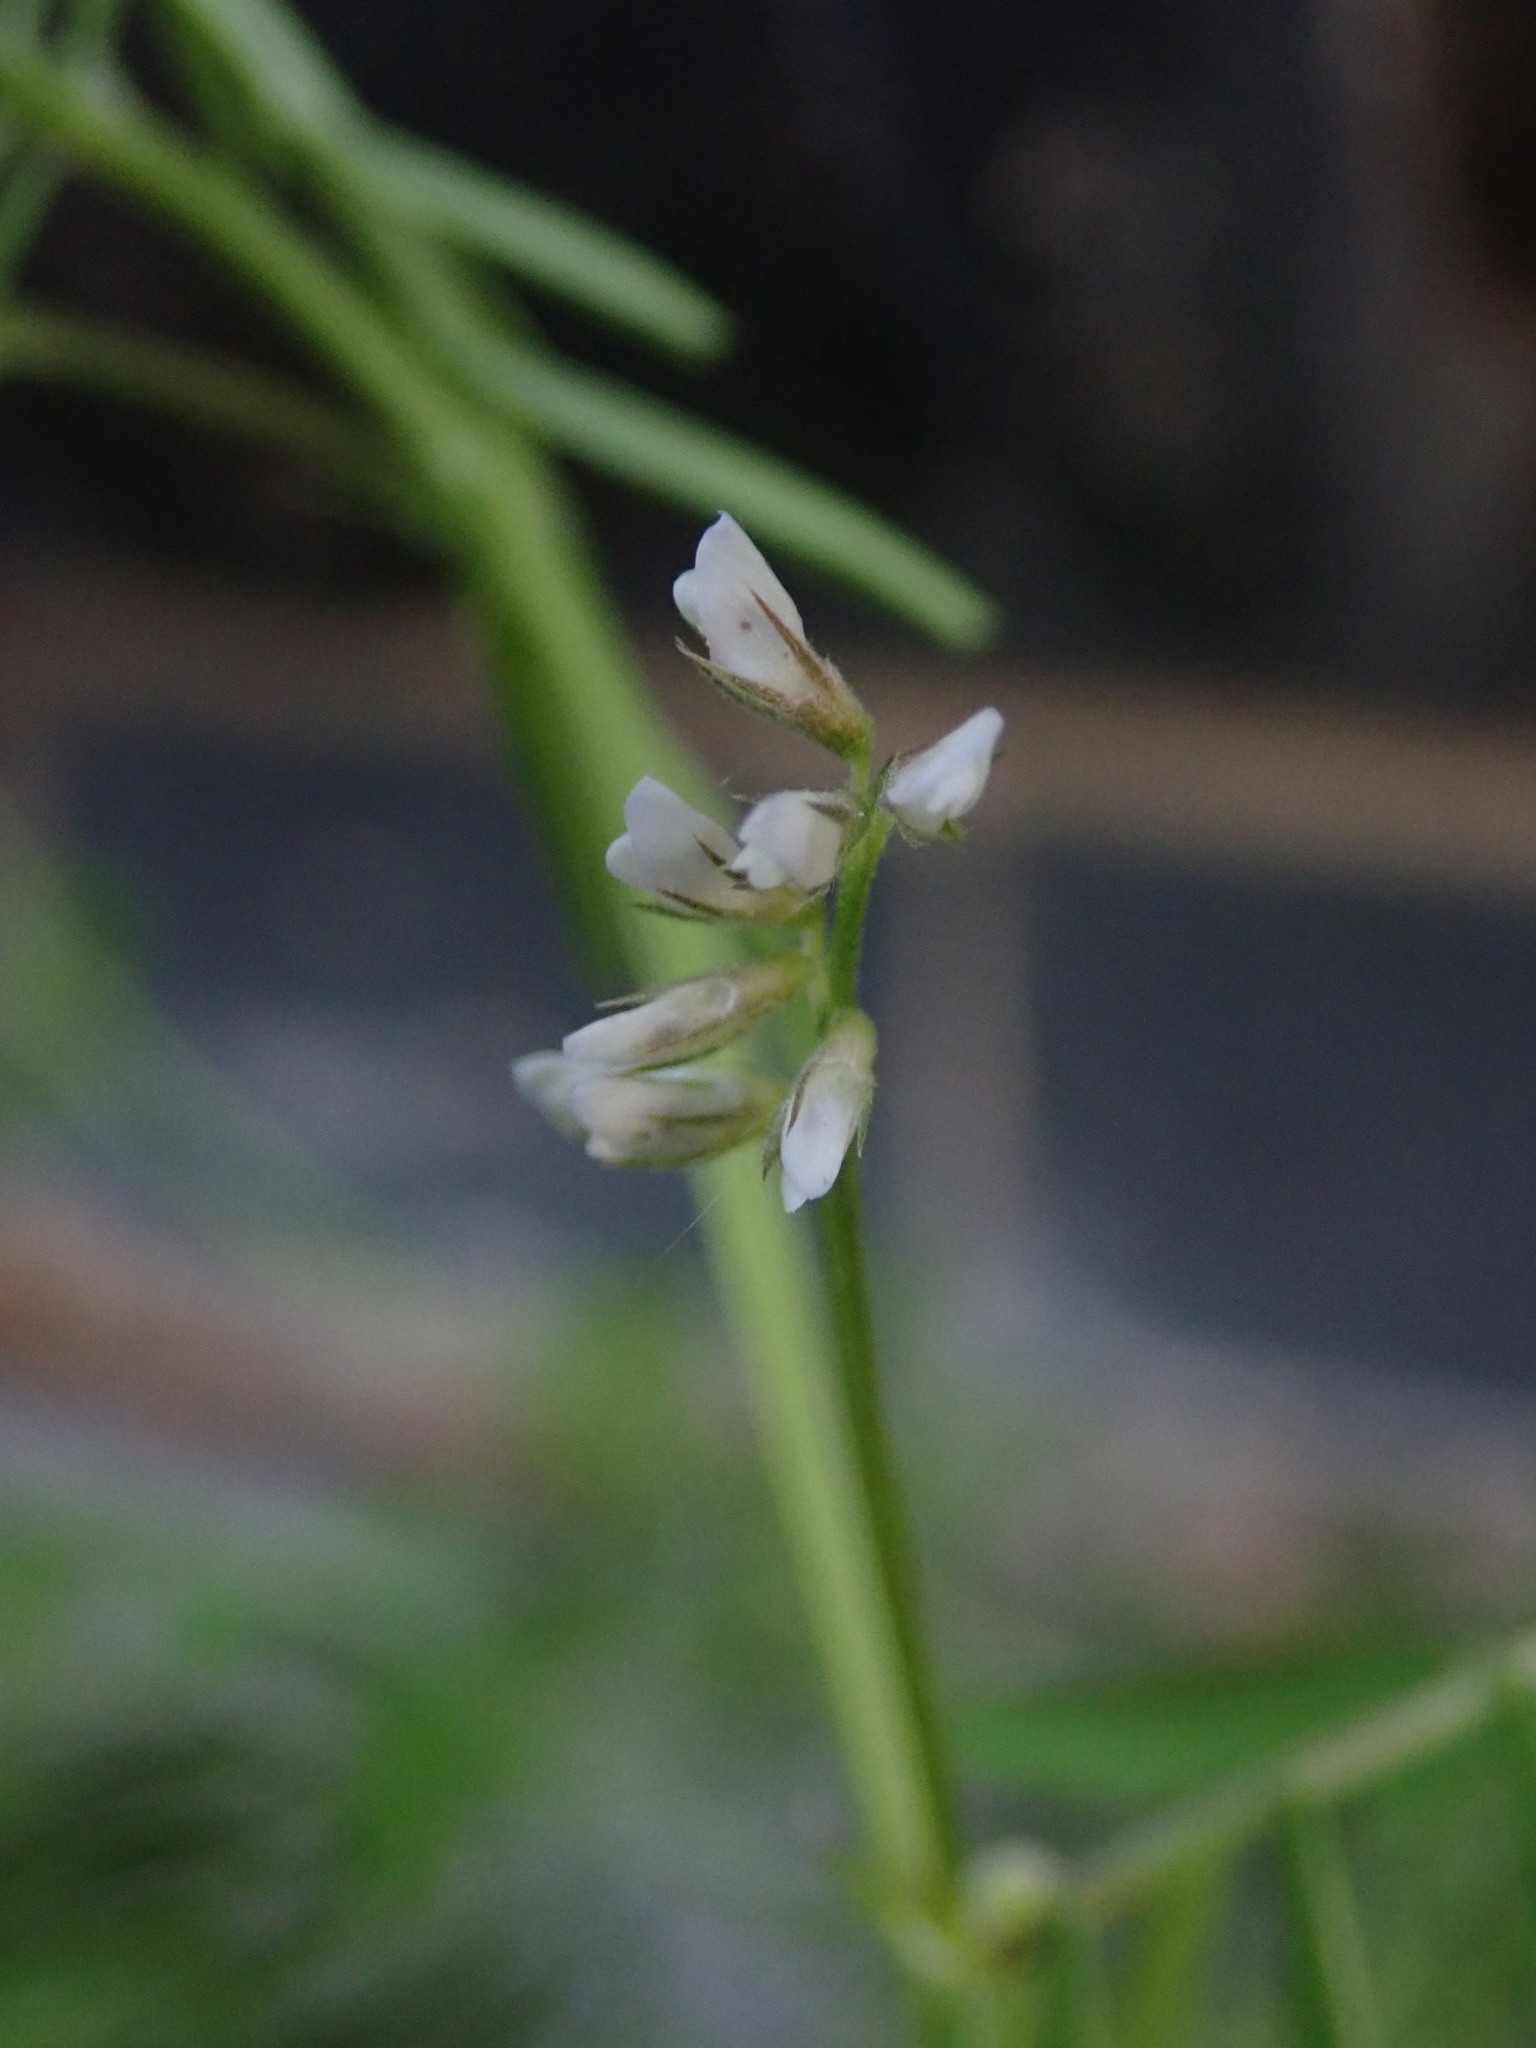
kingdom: Plantae
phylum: Tracheophyta
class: Magnoliopsida
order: Fabales
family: Fabaceae
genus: Vicia
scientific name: Vicia hirsuta
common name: Tiny vetch
